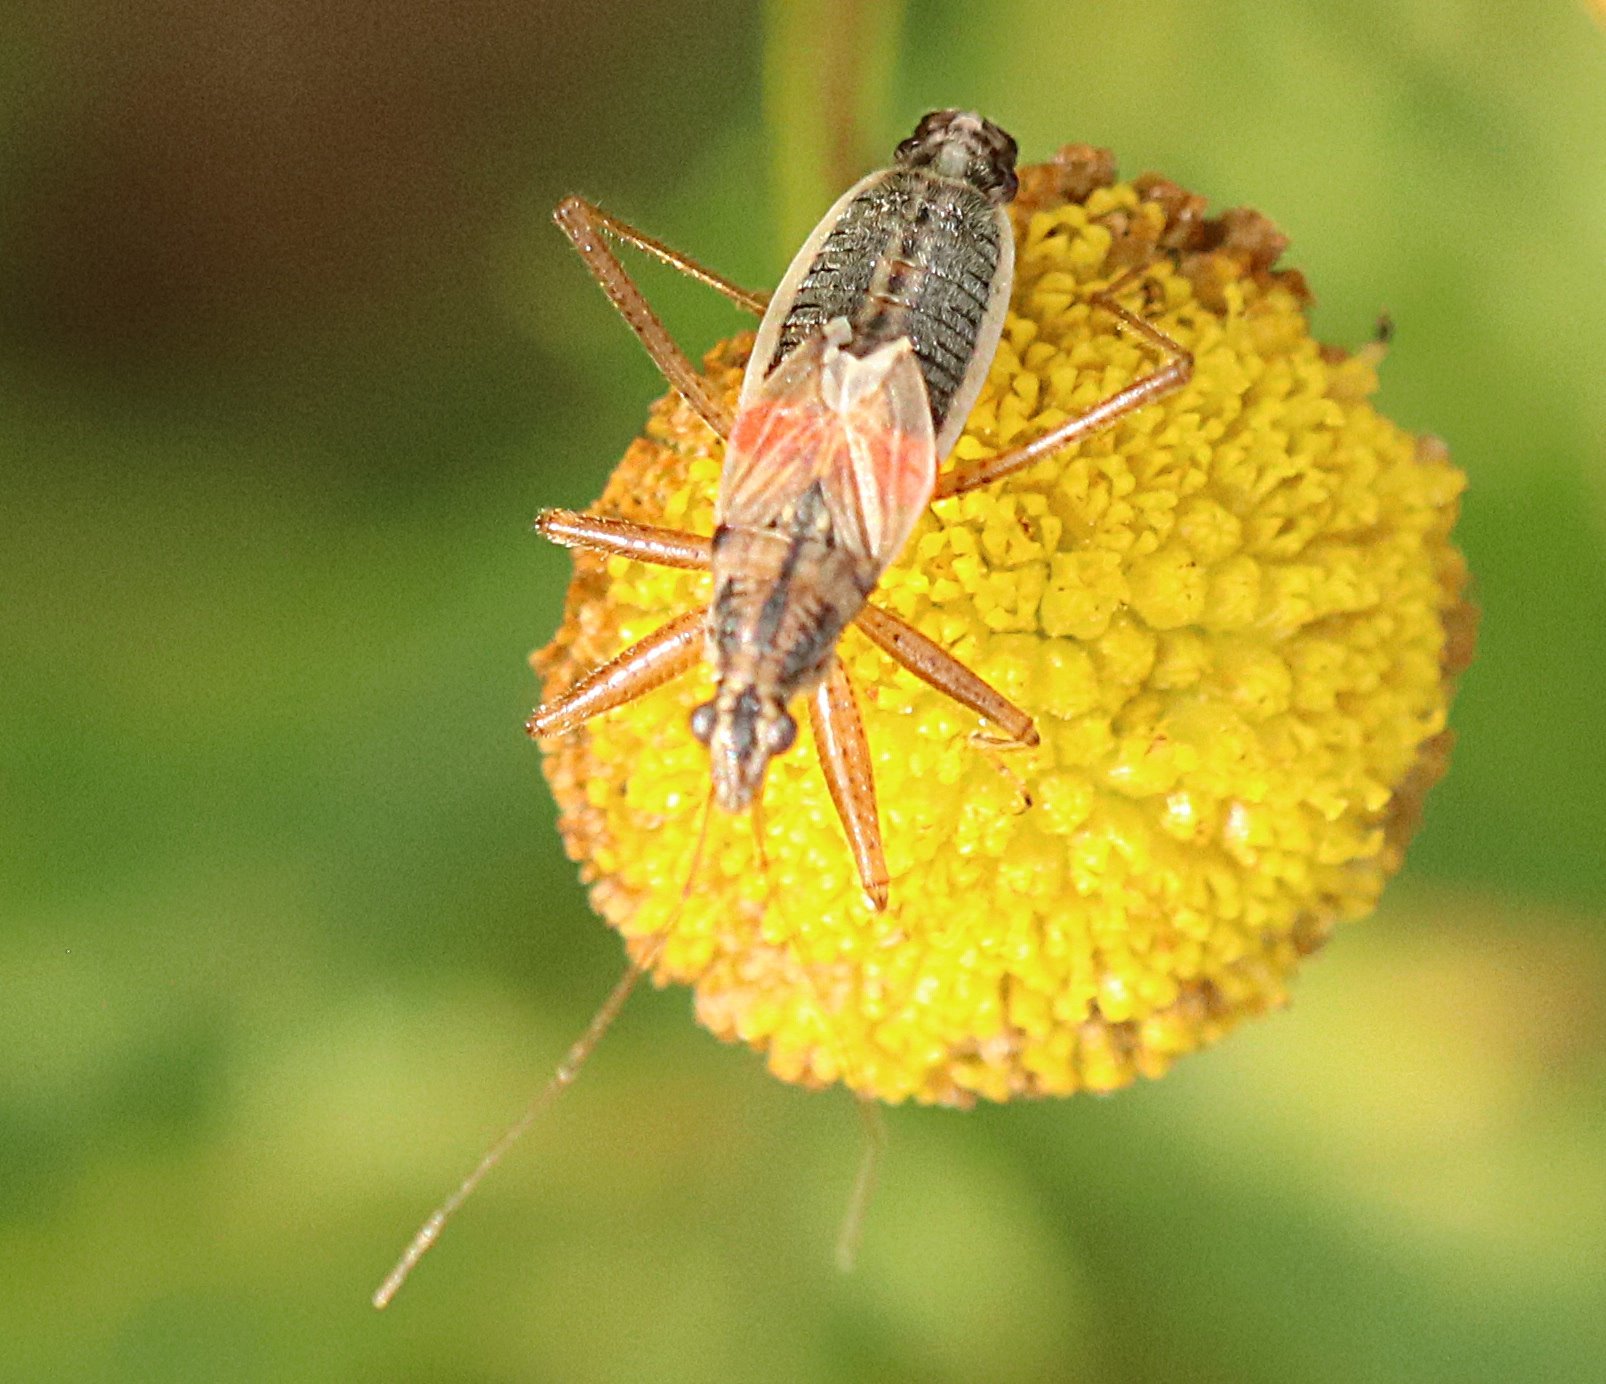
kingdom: Animalia
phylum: Arthropoda
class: Insecta
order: Hemiptera
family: Nabidae
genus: Nabis
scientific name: Nabis flavomarginatus
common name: Broad damselbug
